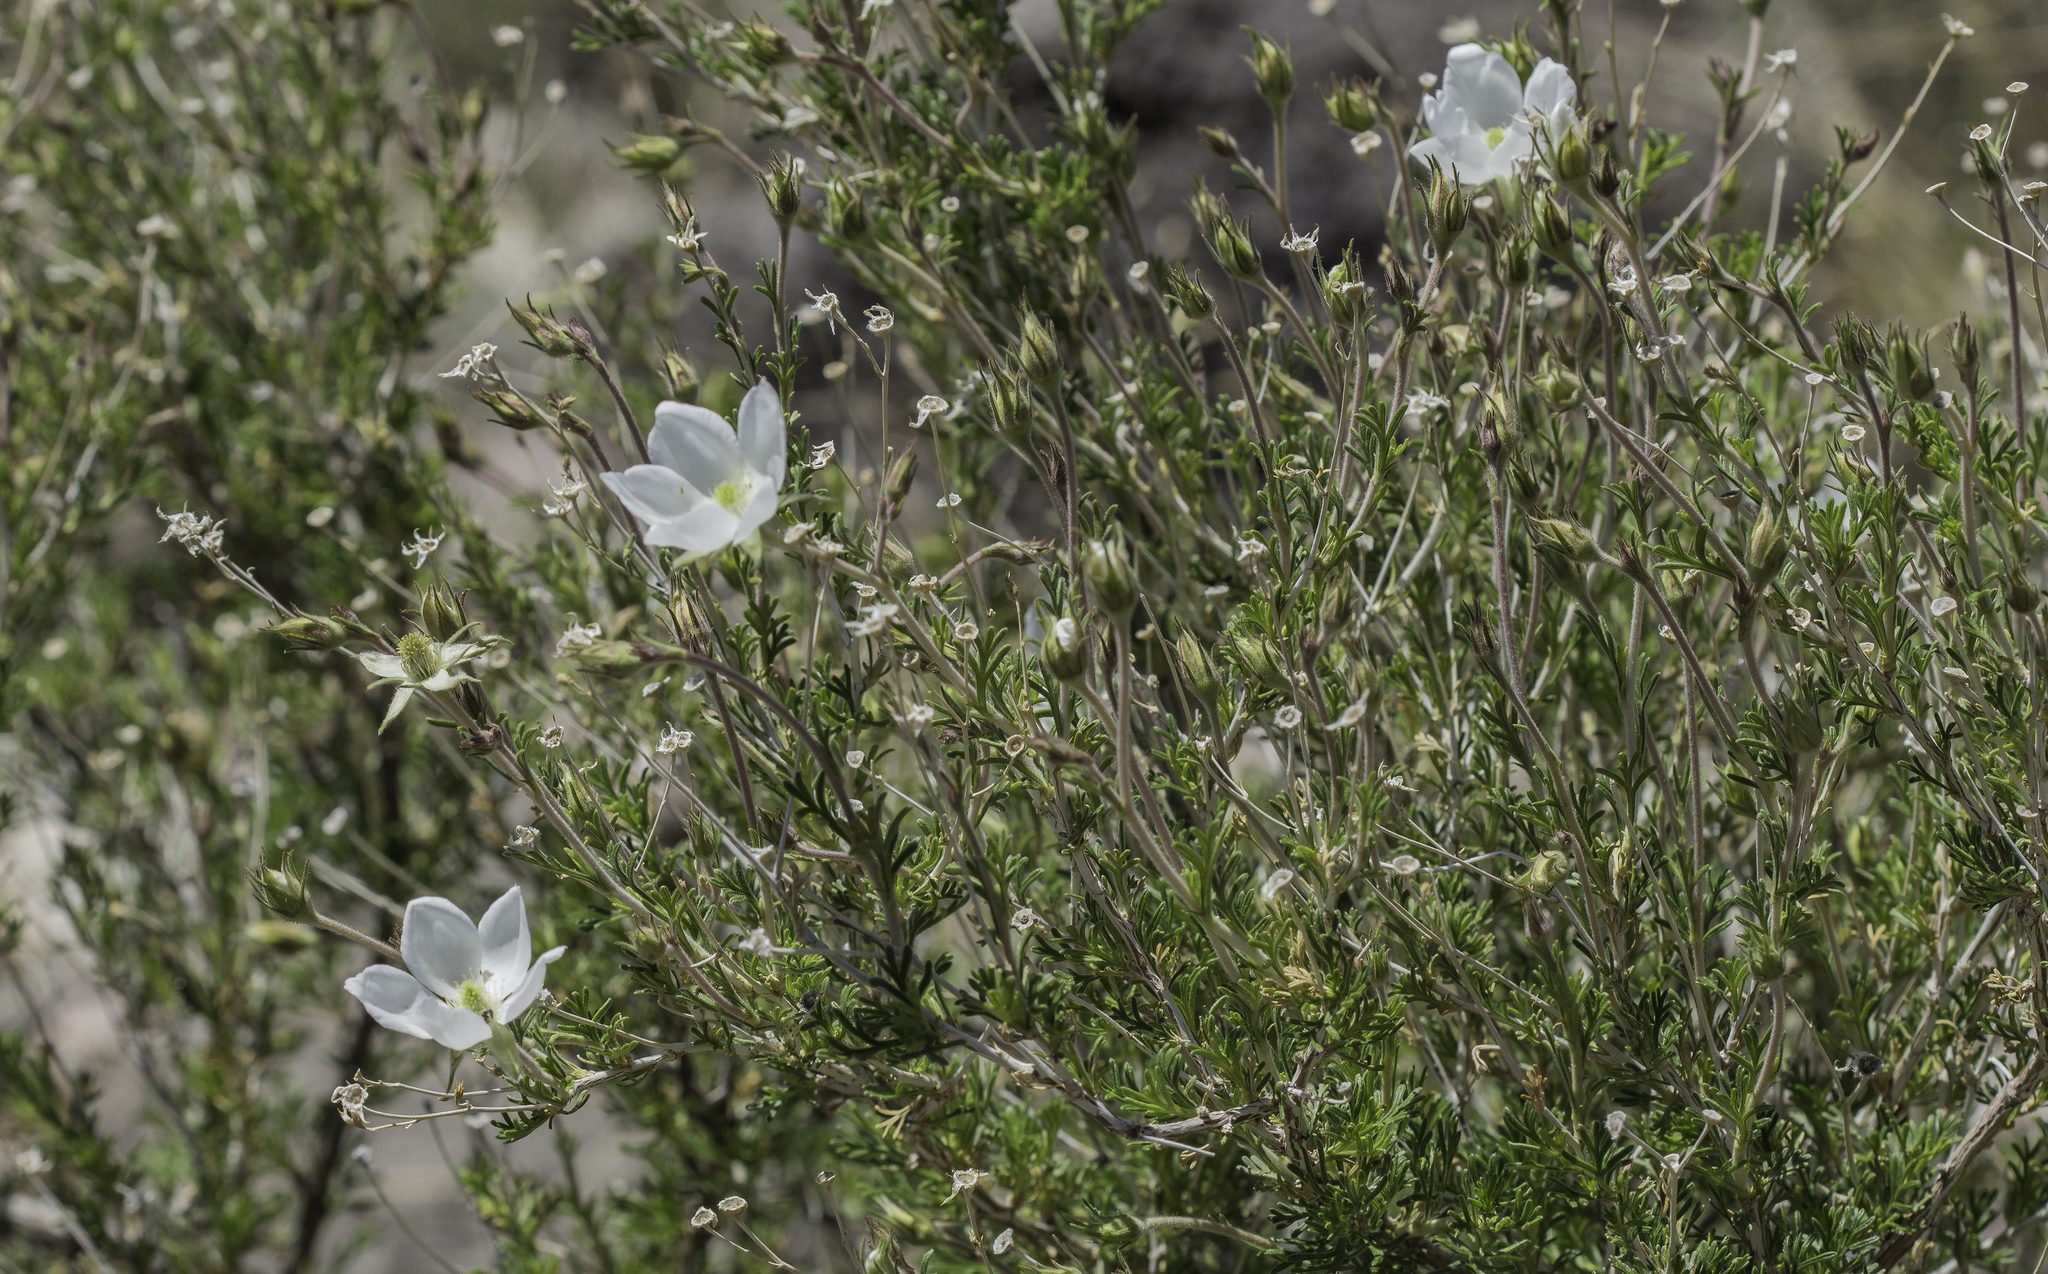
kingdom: Plantae
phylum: Tracheophyta
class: Magnoliopsida
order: Rosales
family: Rosaceae
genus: Fallugia
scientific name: Fallugia paradoxa
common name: Apache-plume
